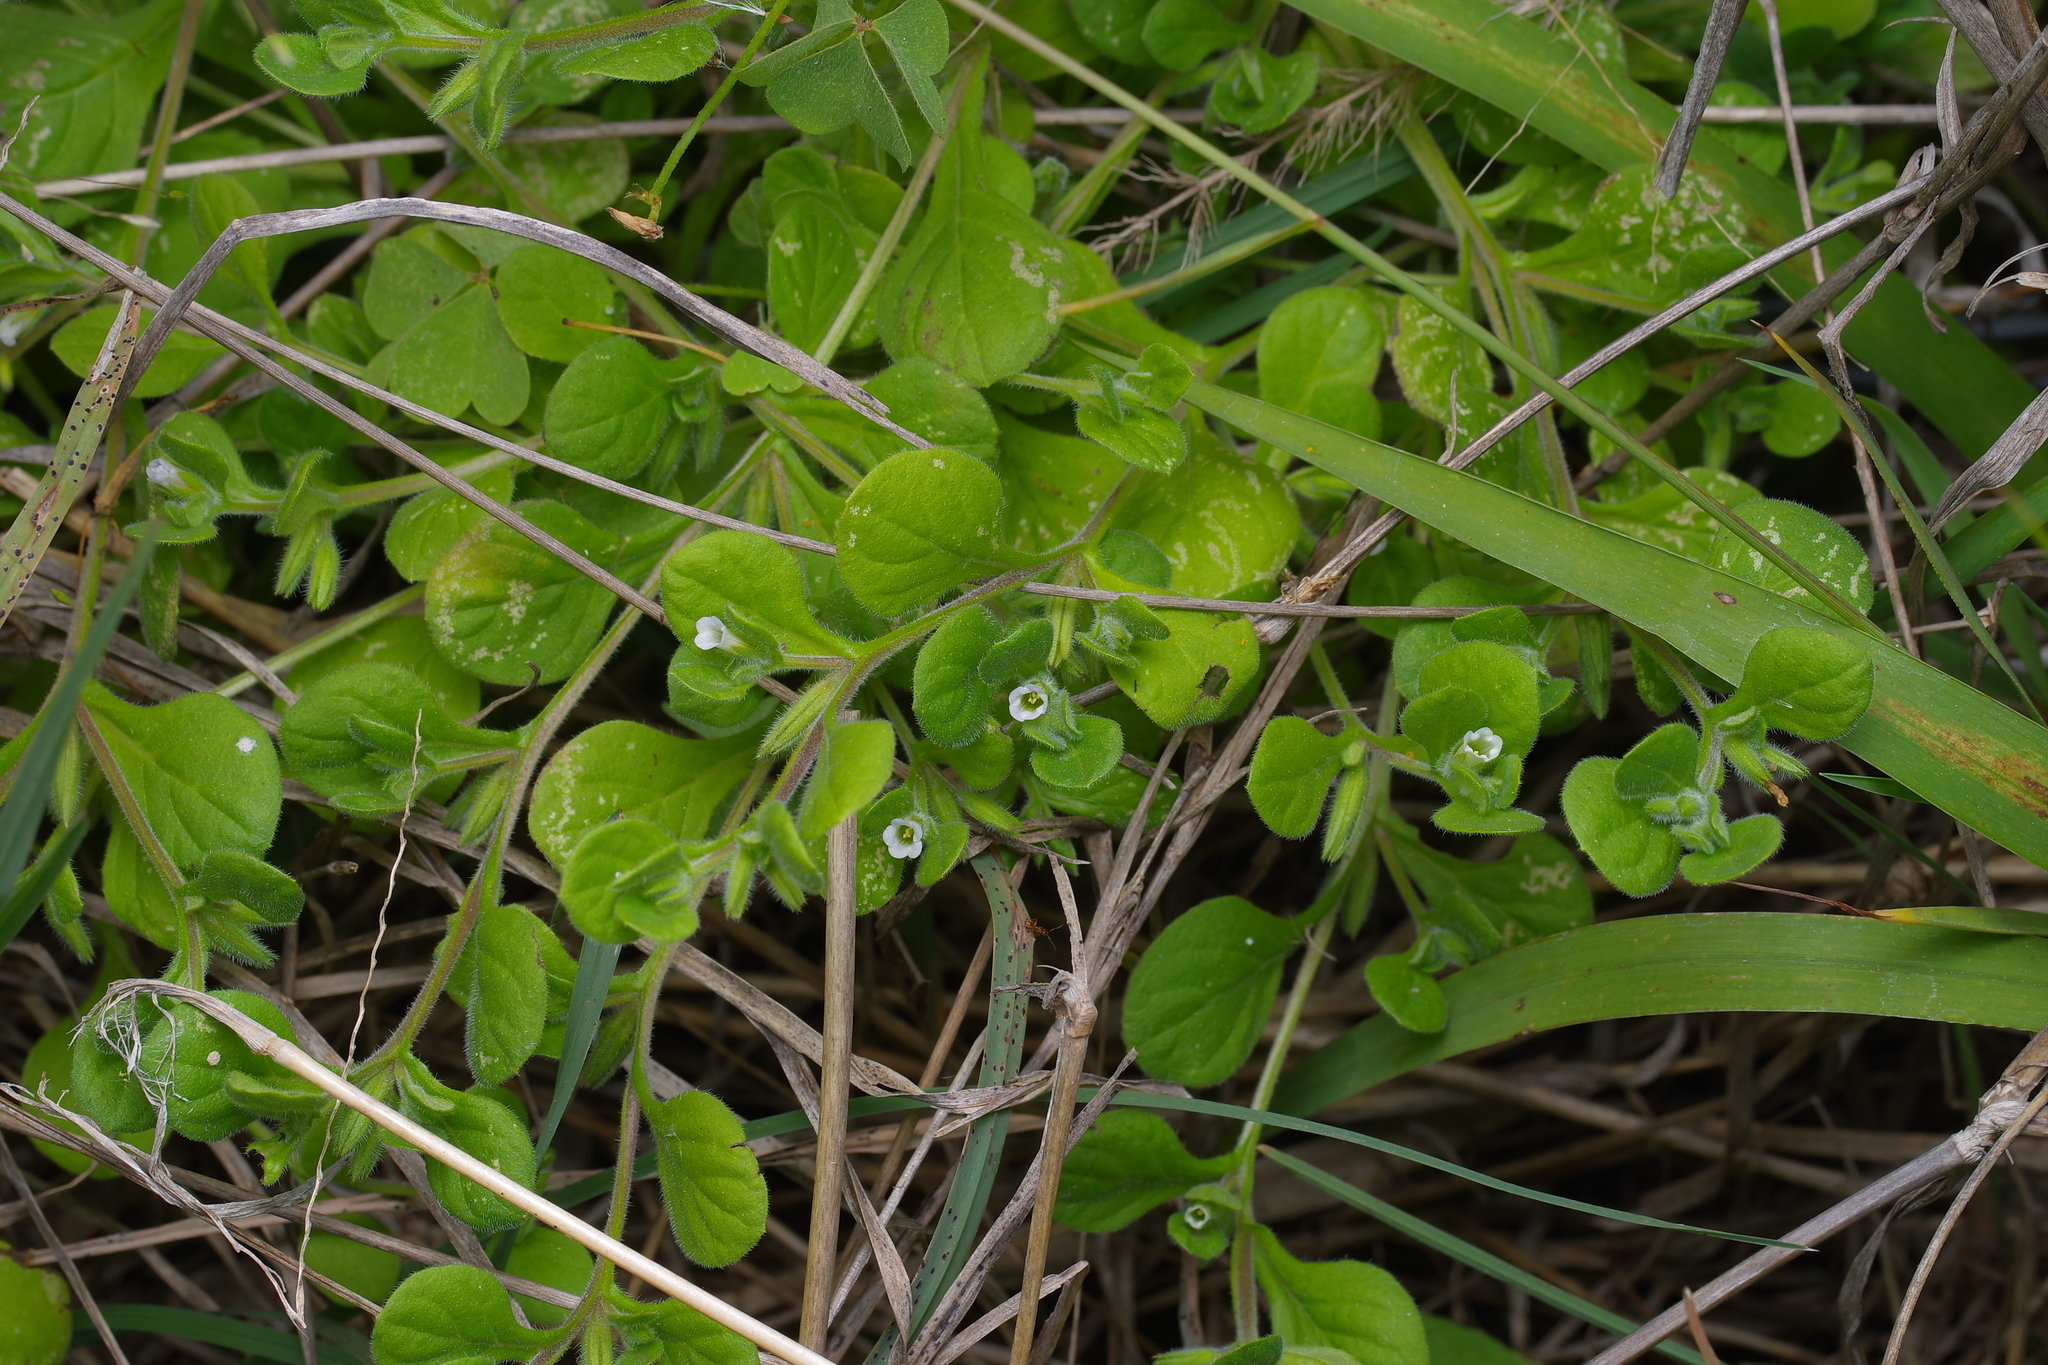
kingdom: Plantae
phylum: Tracheophyta
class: Magnoliopsida
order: Boraginales
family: Namaceae
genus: Nama
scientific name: Nama jamaicensis
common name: Jamaicanweed
